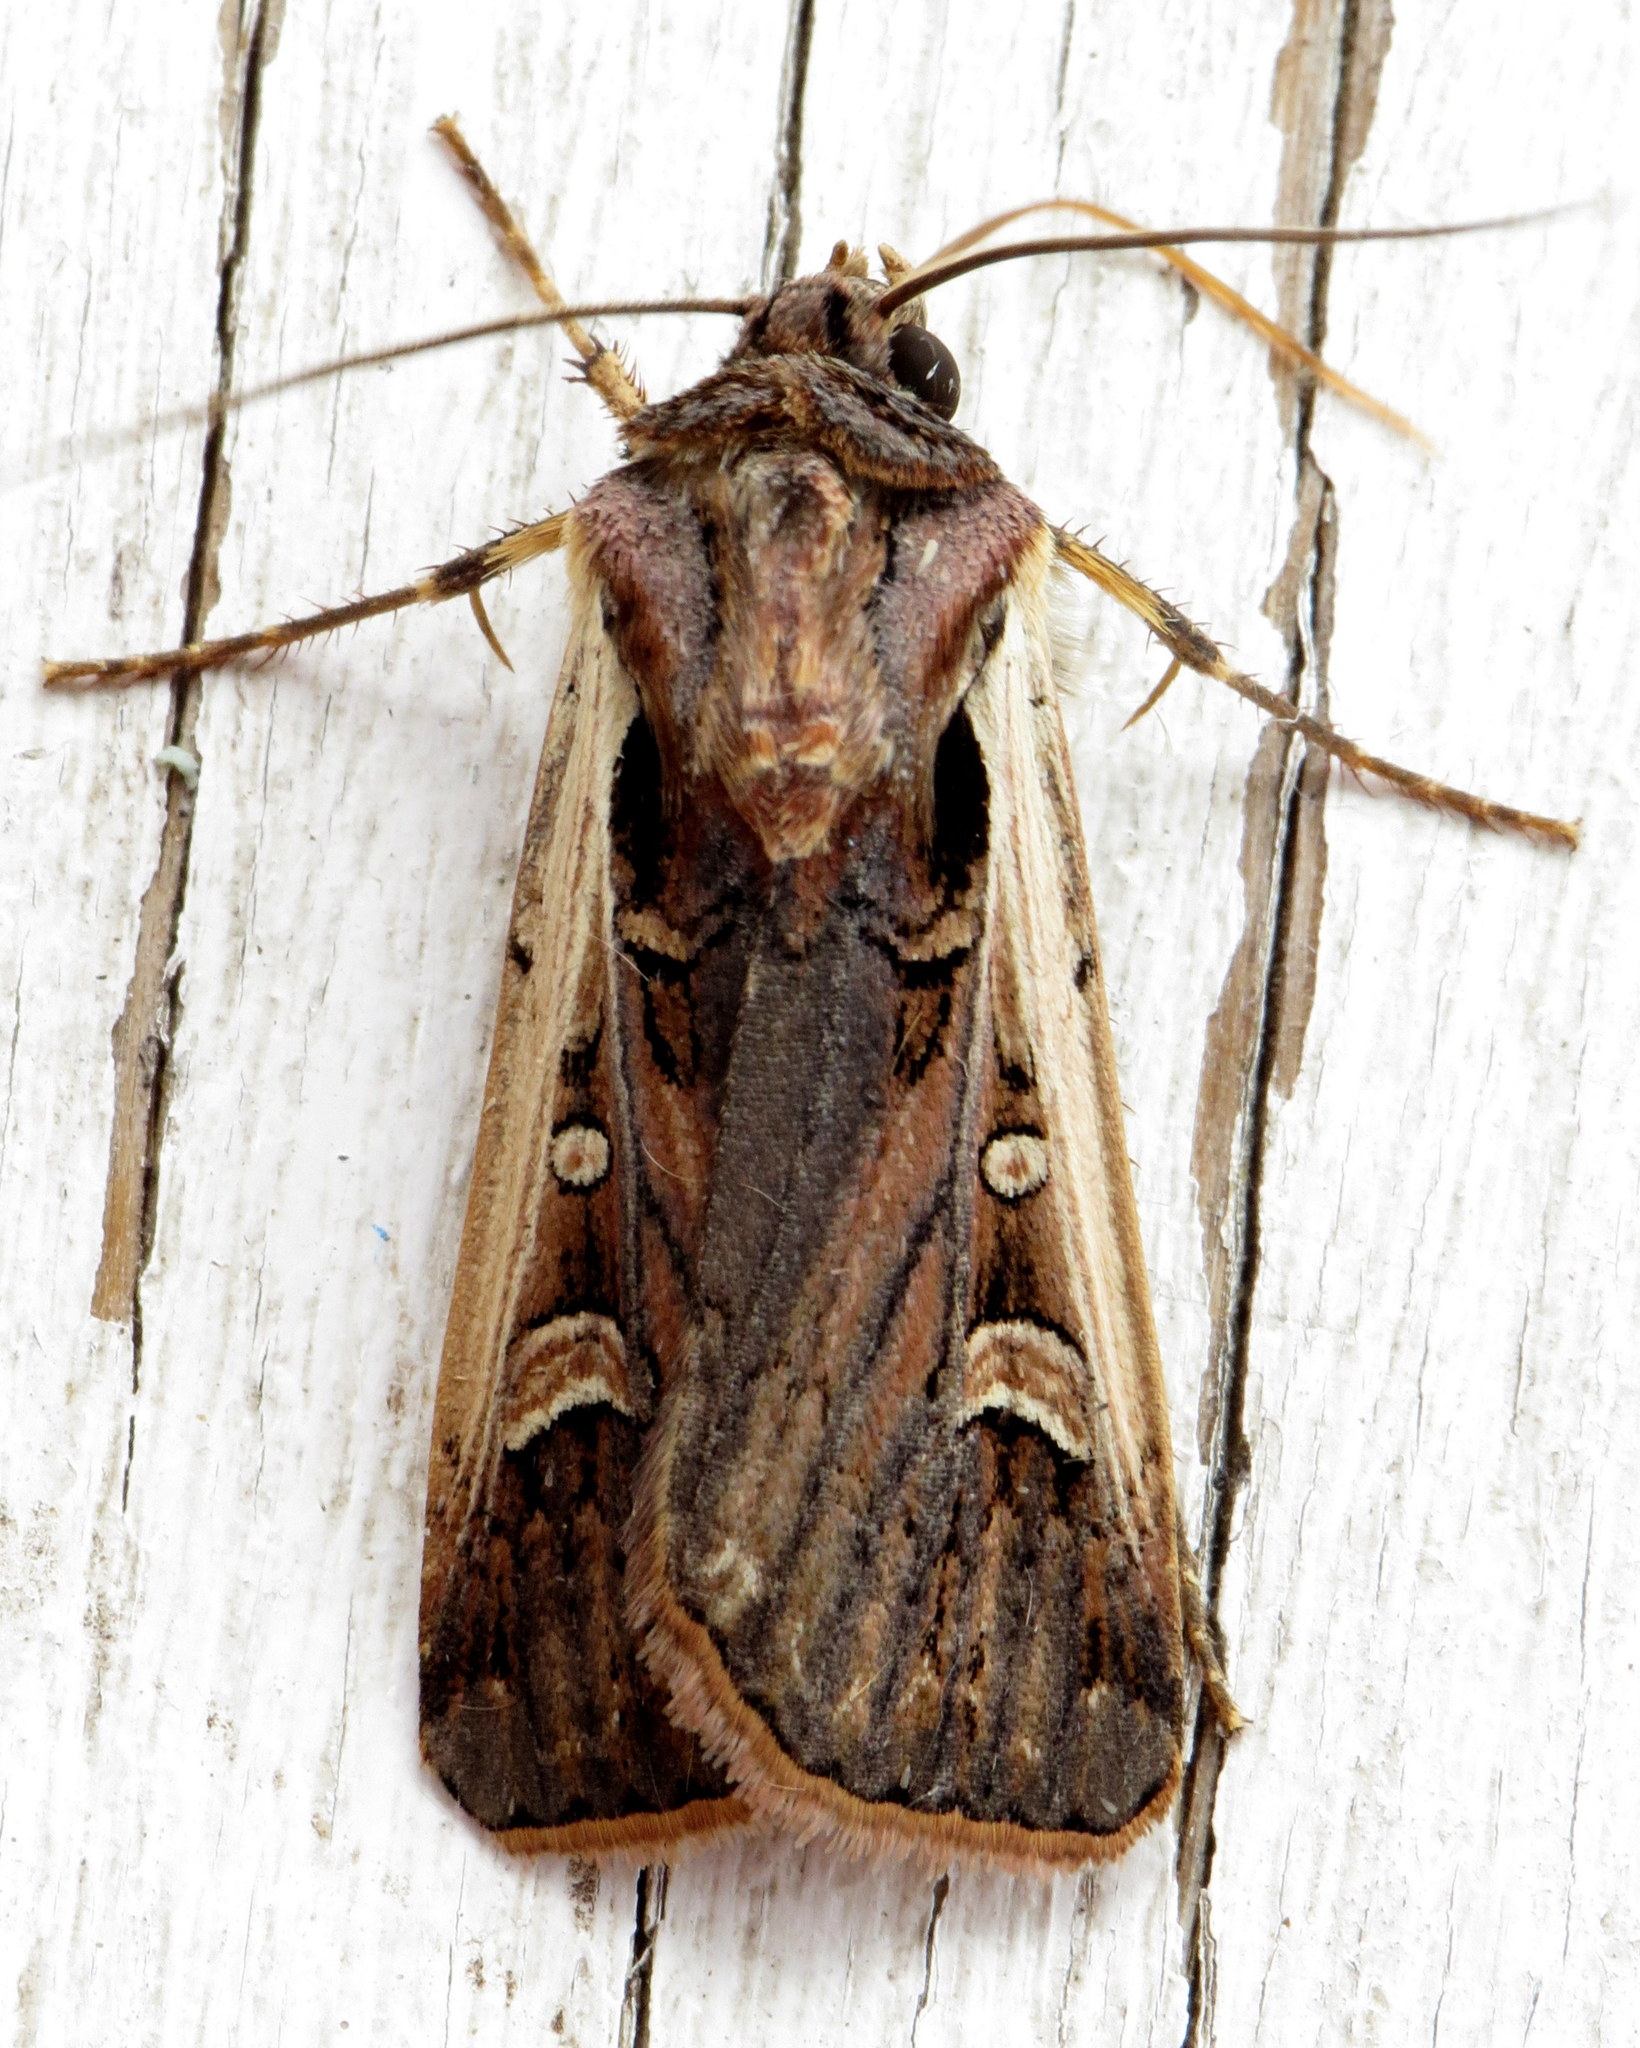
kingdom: Animalia
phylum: Arthropoda
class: Insecta
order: Lepidoptera
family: Noctuidae
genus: Striacosta
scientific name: Striacosta albicosta
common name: Western bean cutworm moth
